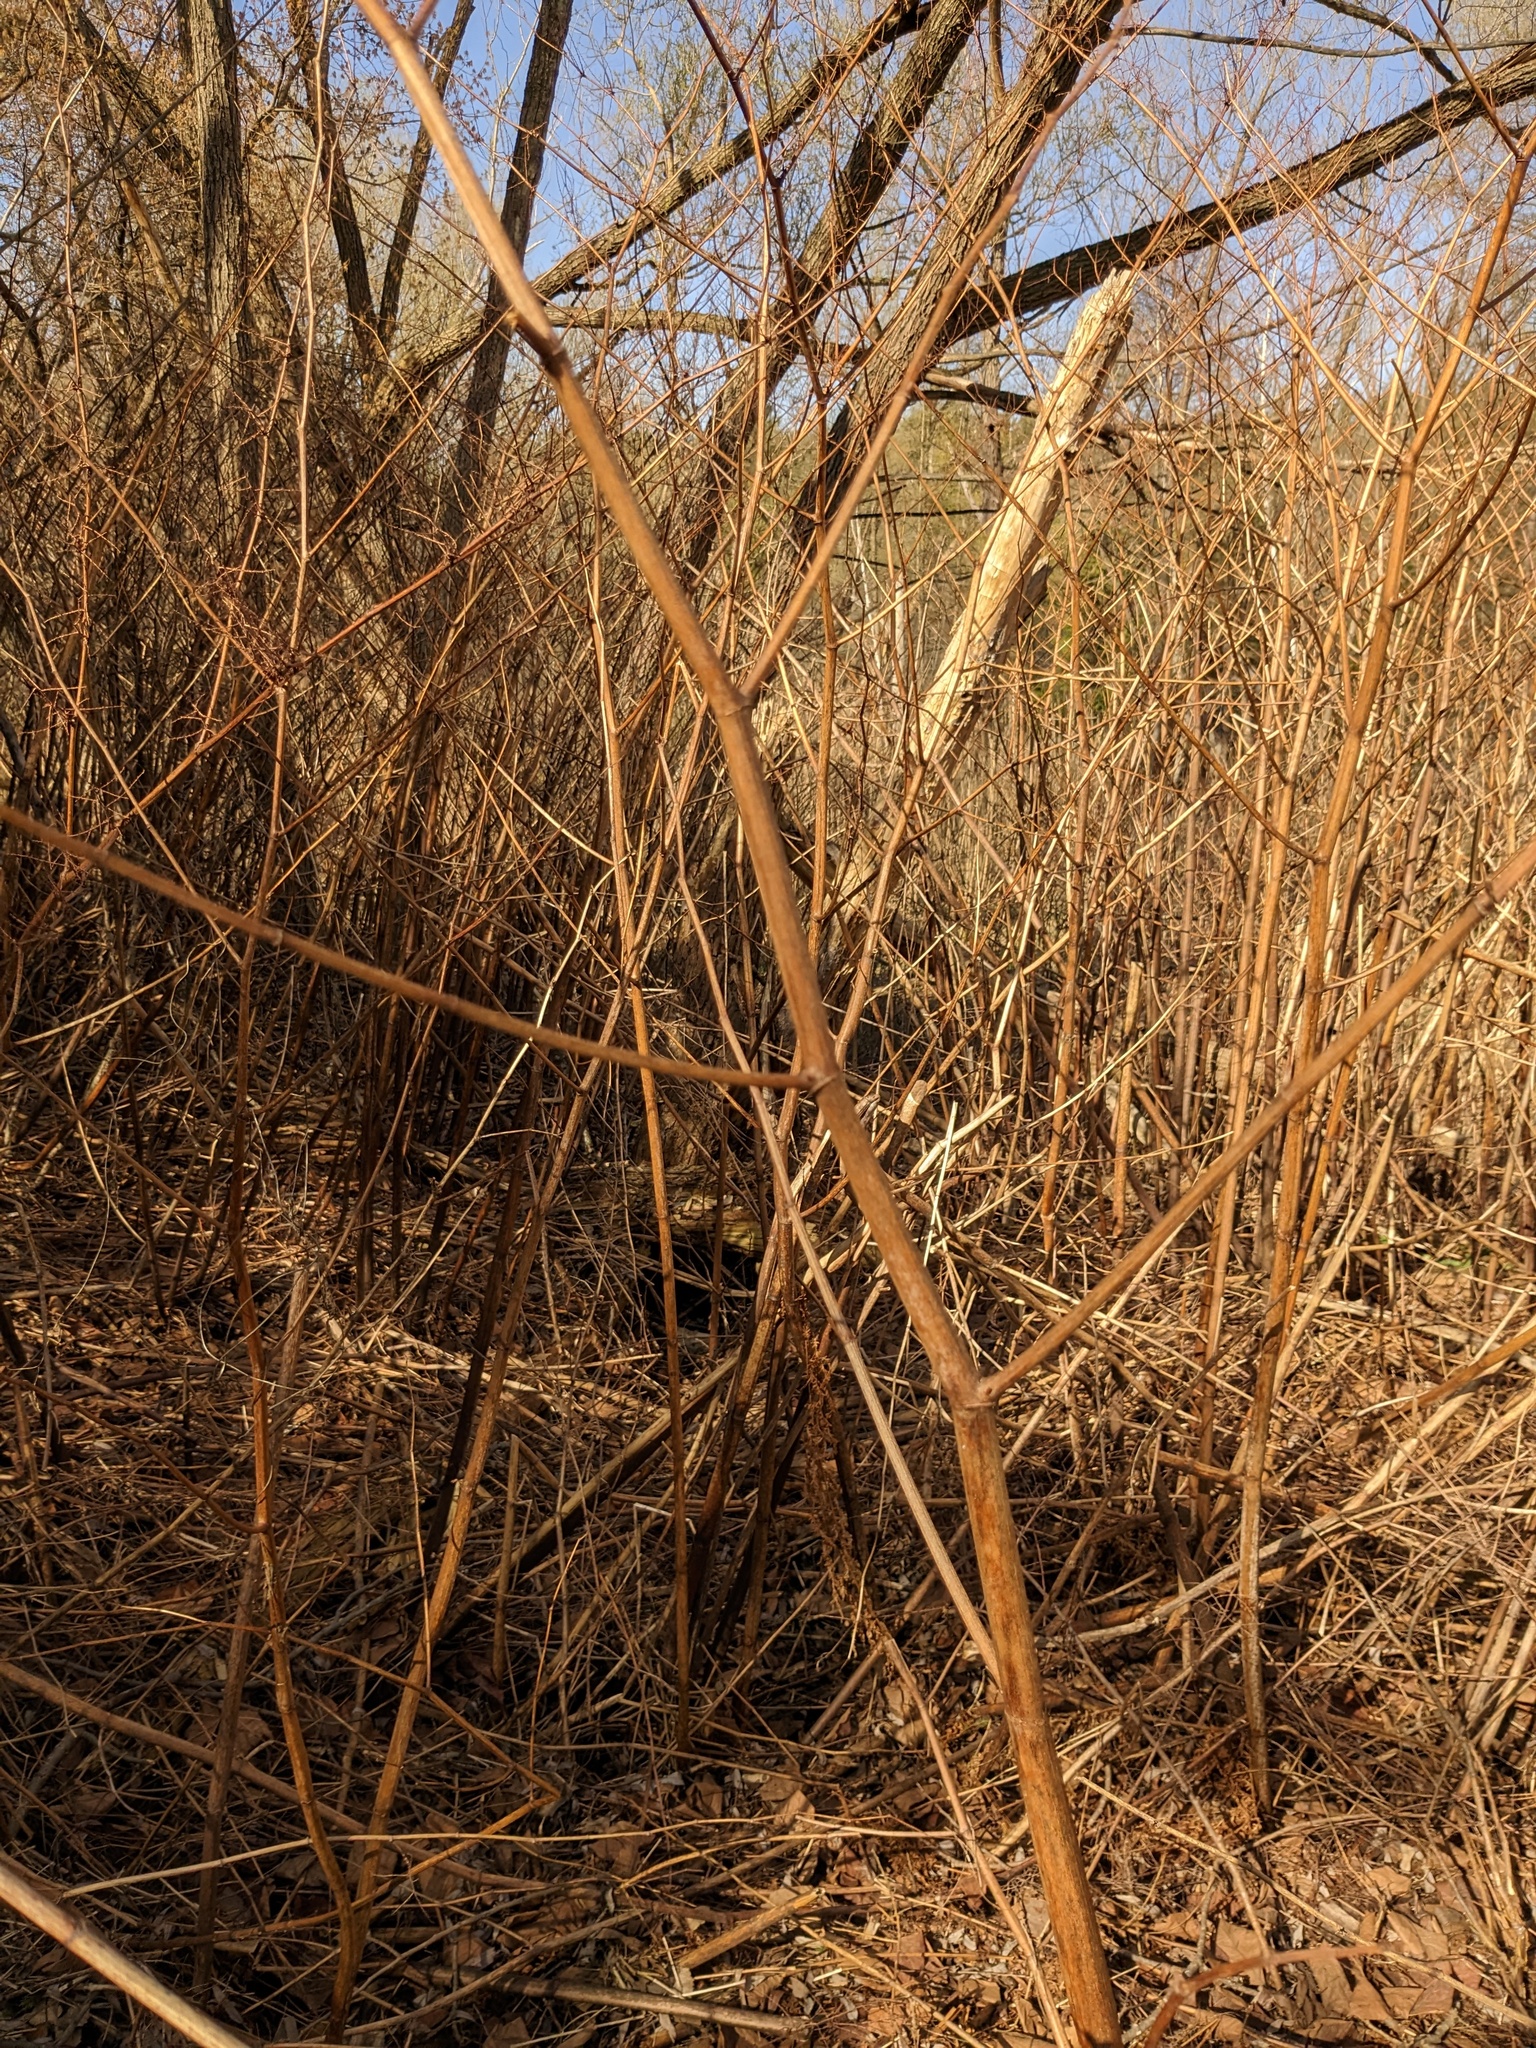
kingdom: Plantae
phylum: Tracheophyta
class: Magnoliopsida
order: Caryophyllales
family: Polygonaceae
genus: Reynoutria
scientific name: Reynoutria japonica
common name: Japanese knotweed
